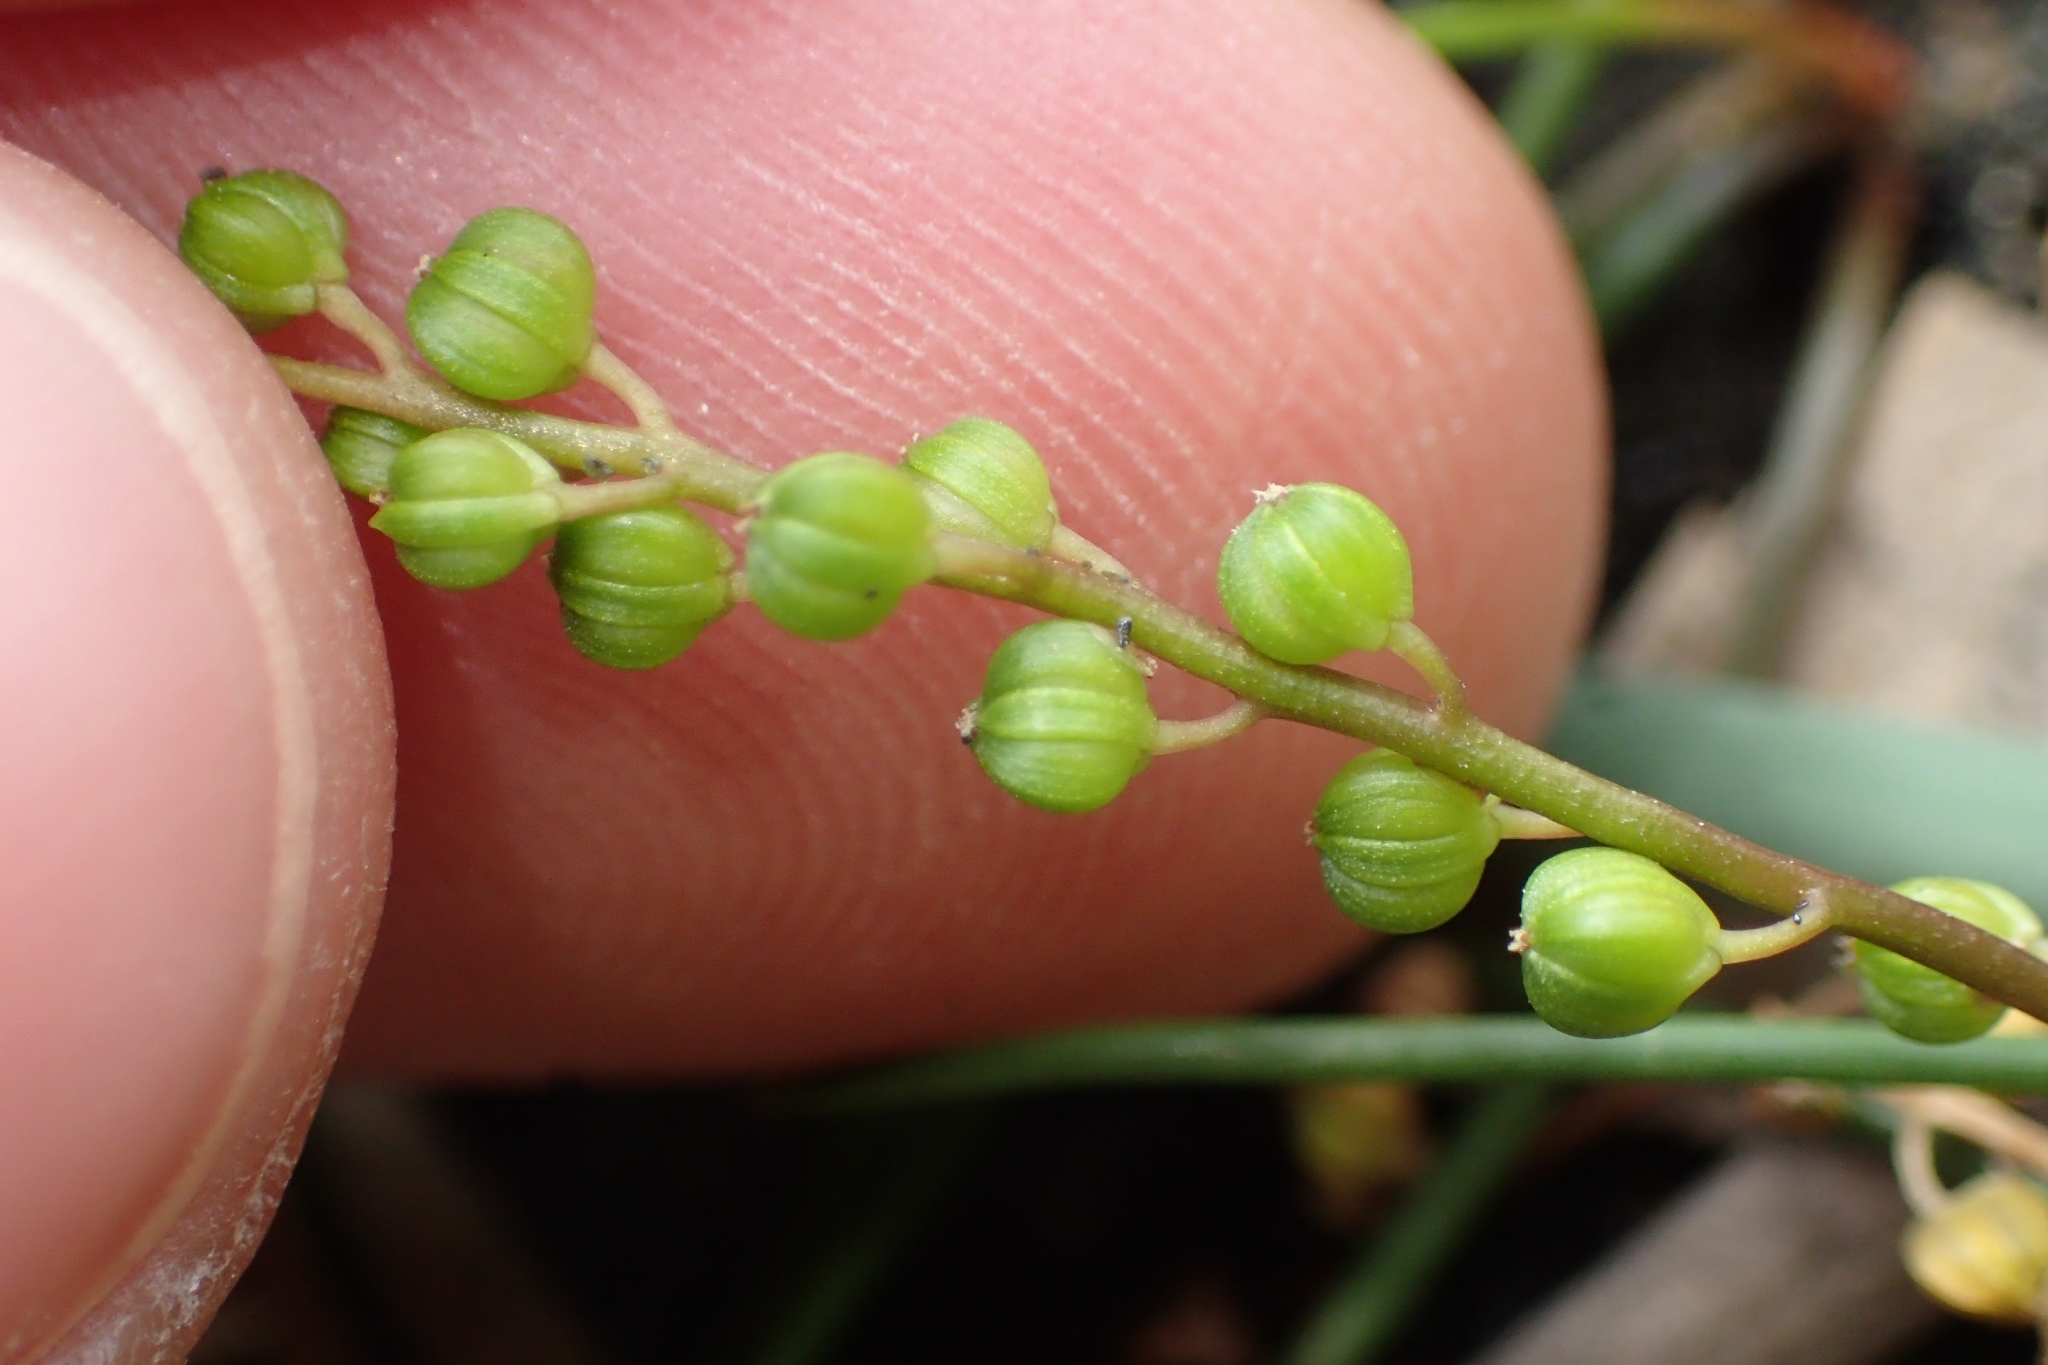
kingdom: Plantae
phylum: Tracheophyta
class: Liliopsida
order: Alismatales
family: Juncaginaceae
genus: Triglochin
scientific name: Triglochin striata
